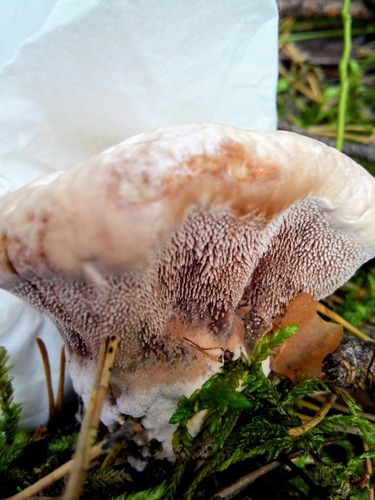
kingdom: Fungi
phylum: Basidiomycota
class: Agaricomycetes
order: Thelephorales
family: Bankeraceae
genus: Hydnellum
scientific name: Hydnellum
